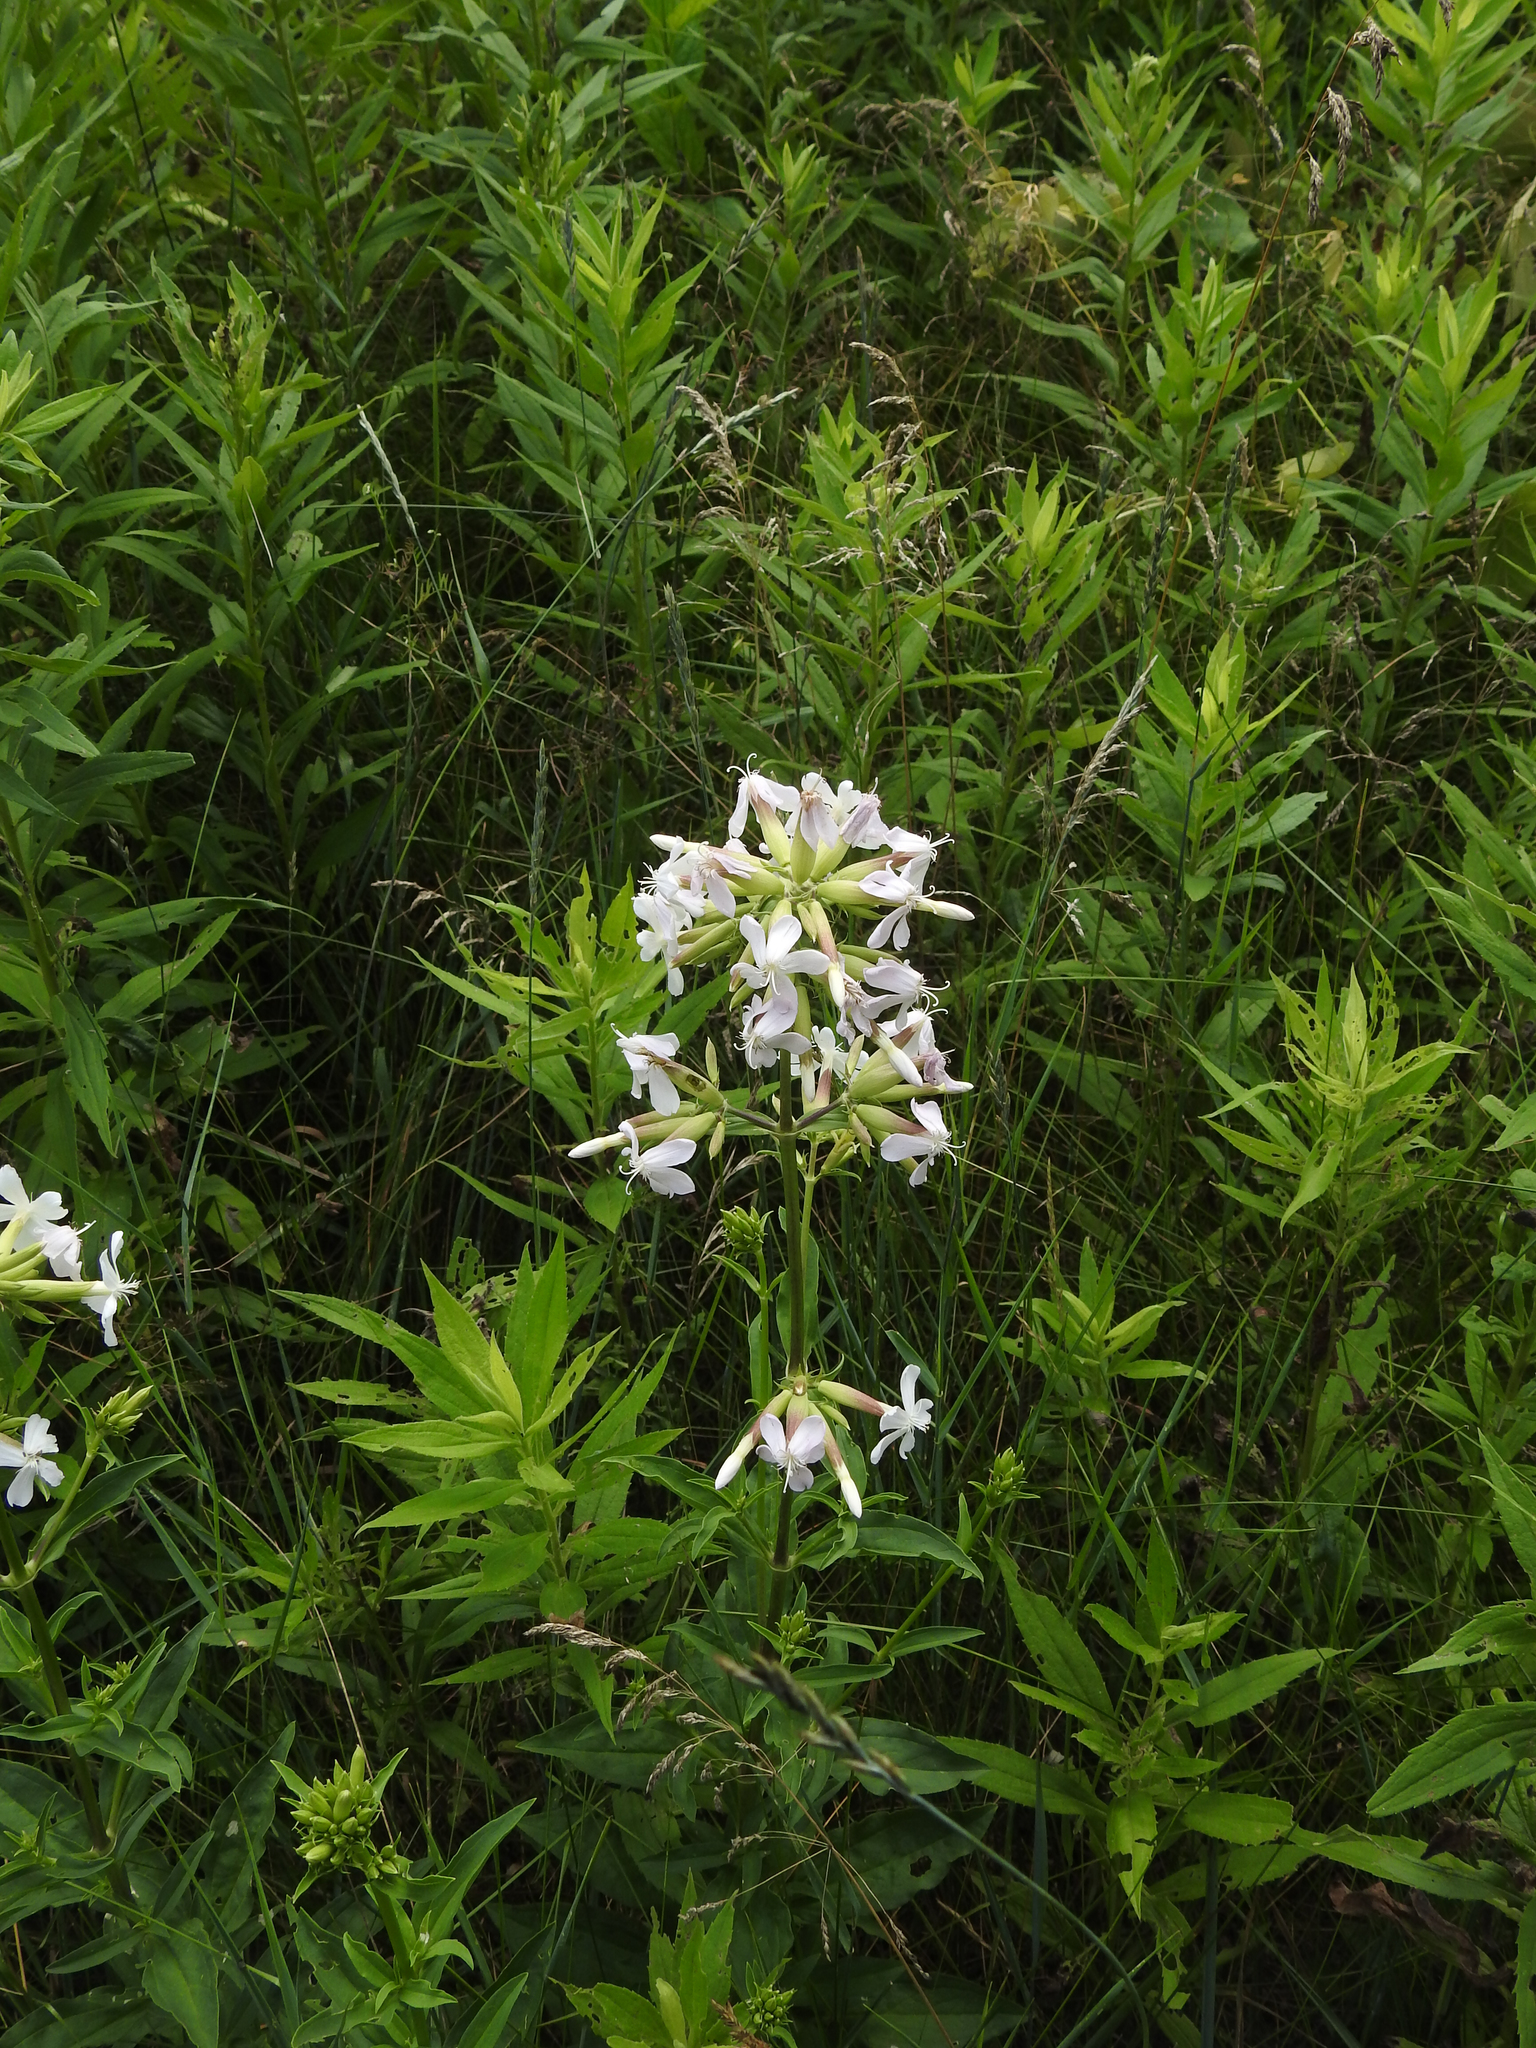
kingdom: Plantae
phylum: Tracheophyta
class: Magnoliopsida
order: Caryophyllales
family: Caryophyllaceae
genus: Saponaria
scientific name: Saponaria officinalis
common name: Soapwort
